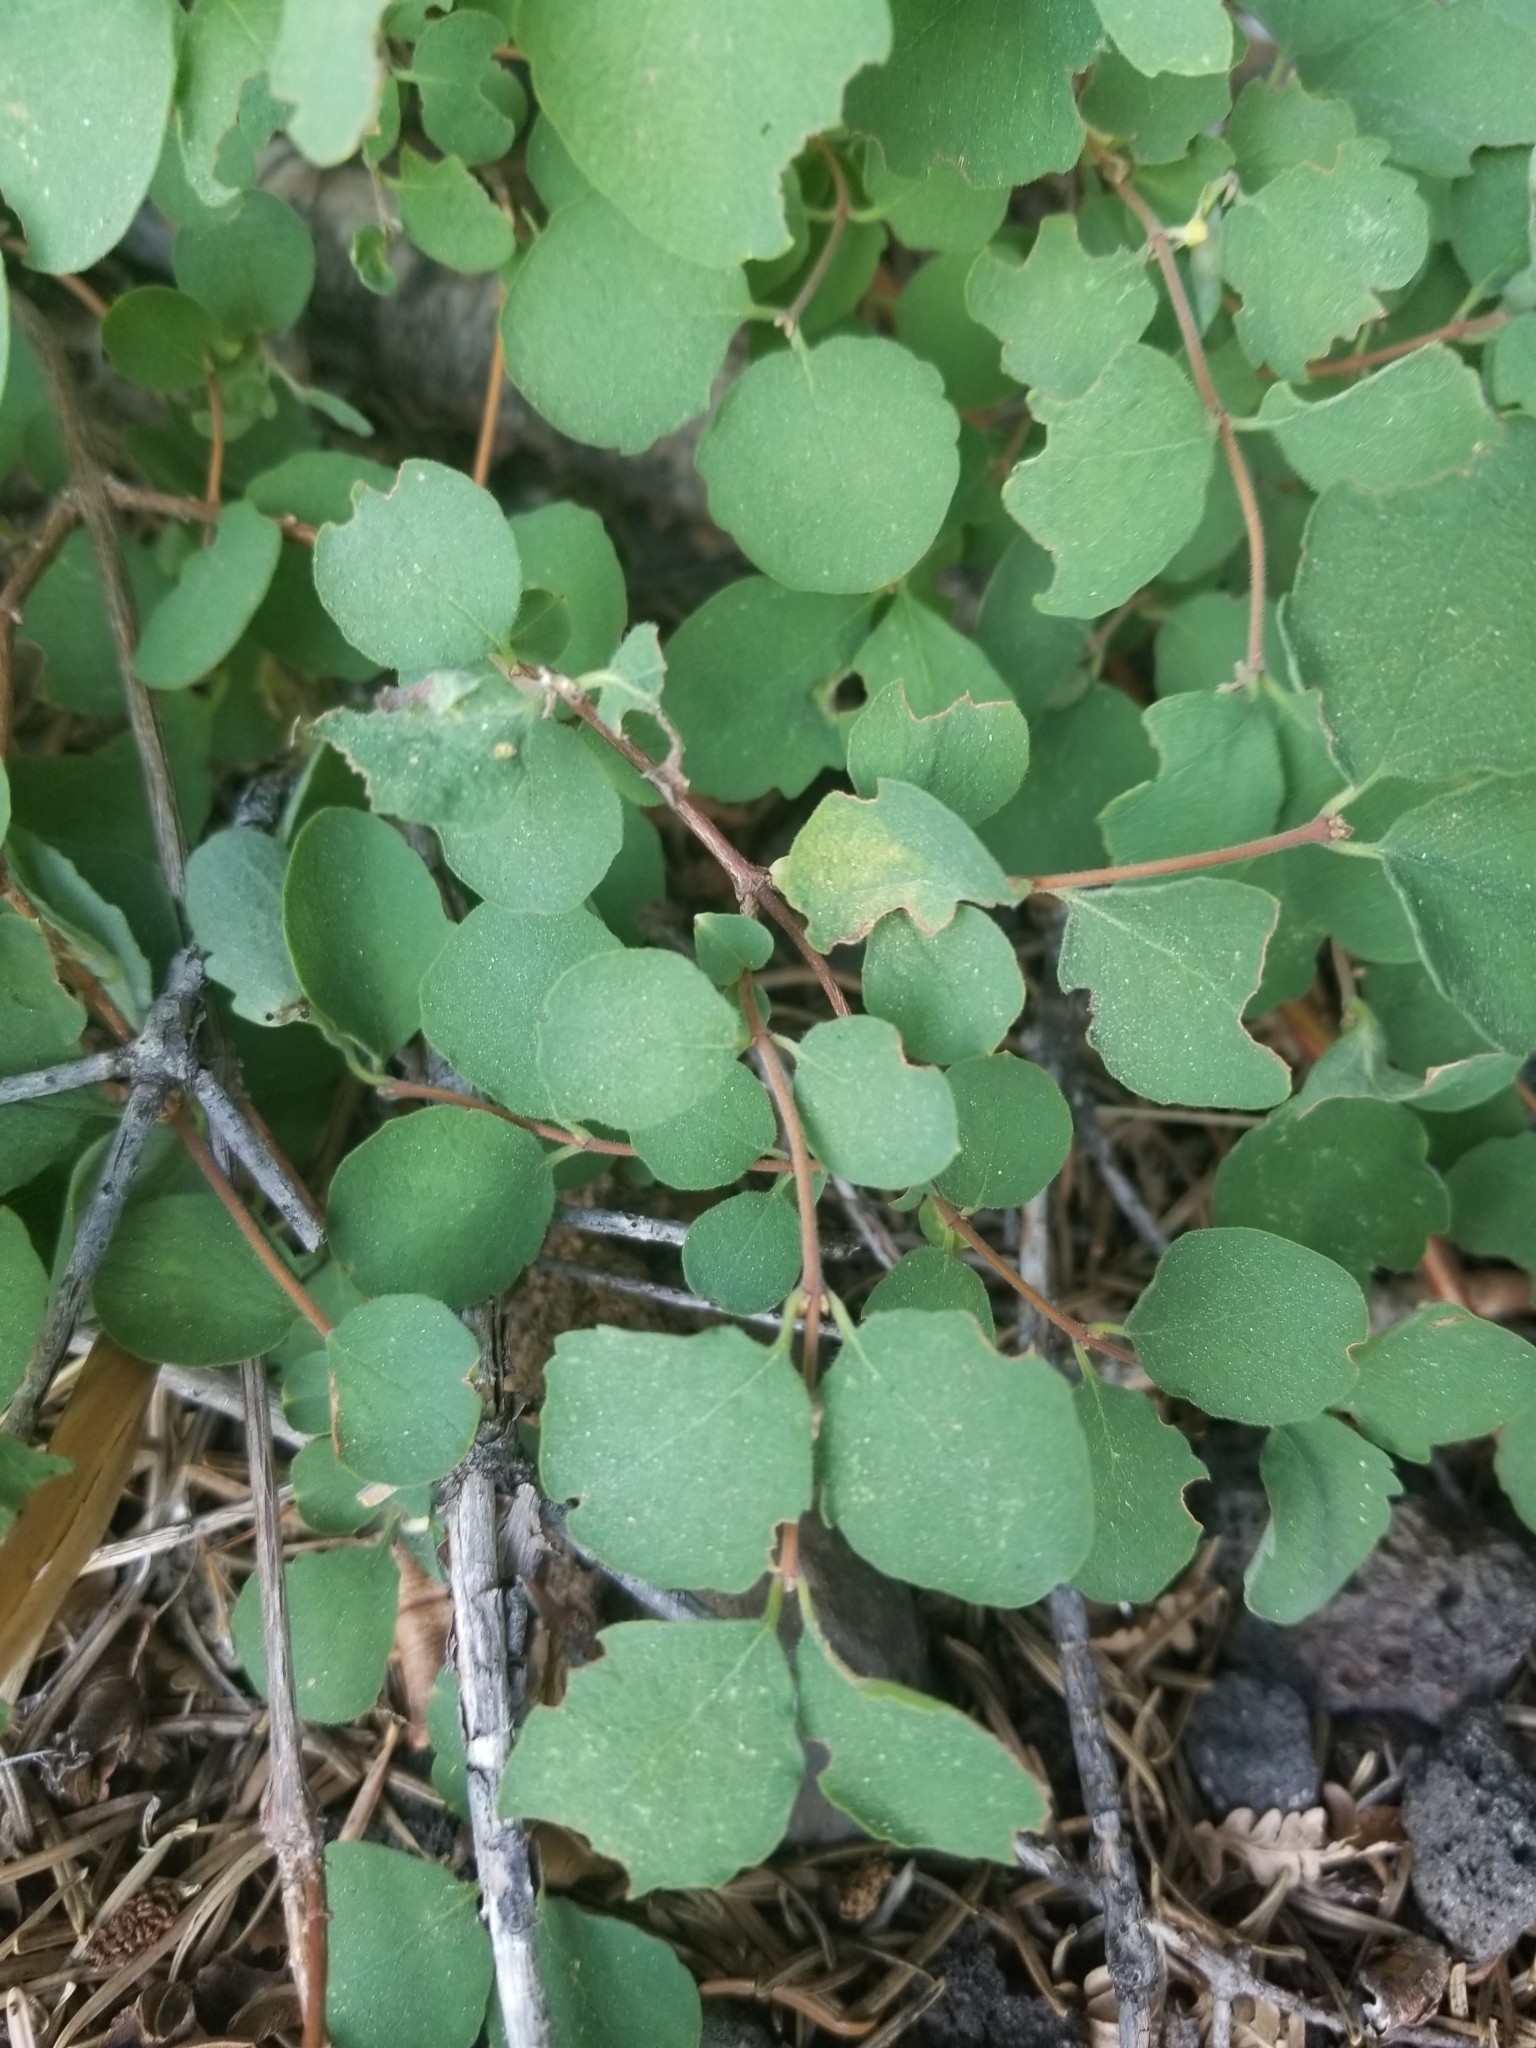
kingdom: Plantae
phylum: Tracheophyta
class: Magnoliopsida
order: Dipsacales
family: Caprifoliaceae
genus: Symphoricarpos
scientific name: Symphoricarpos mollis
